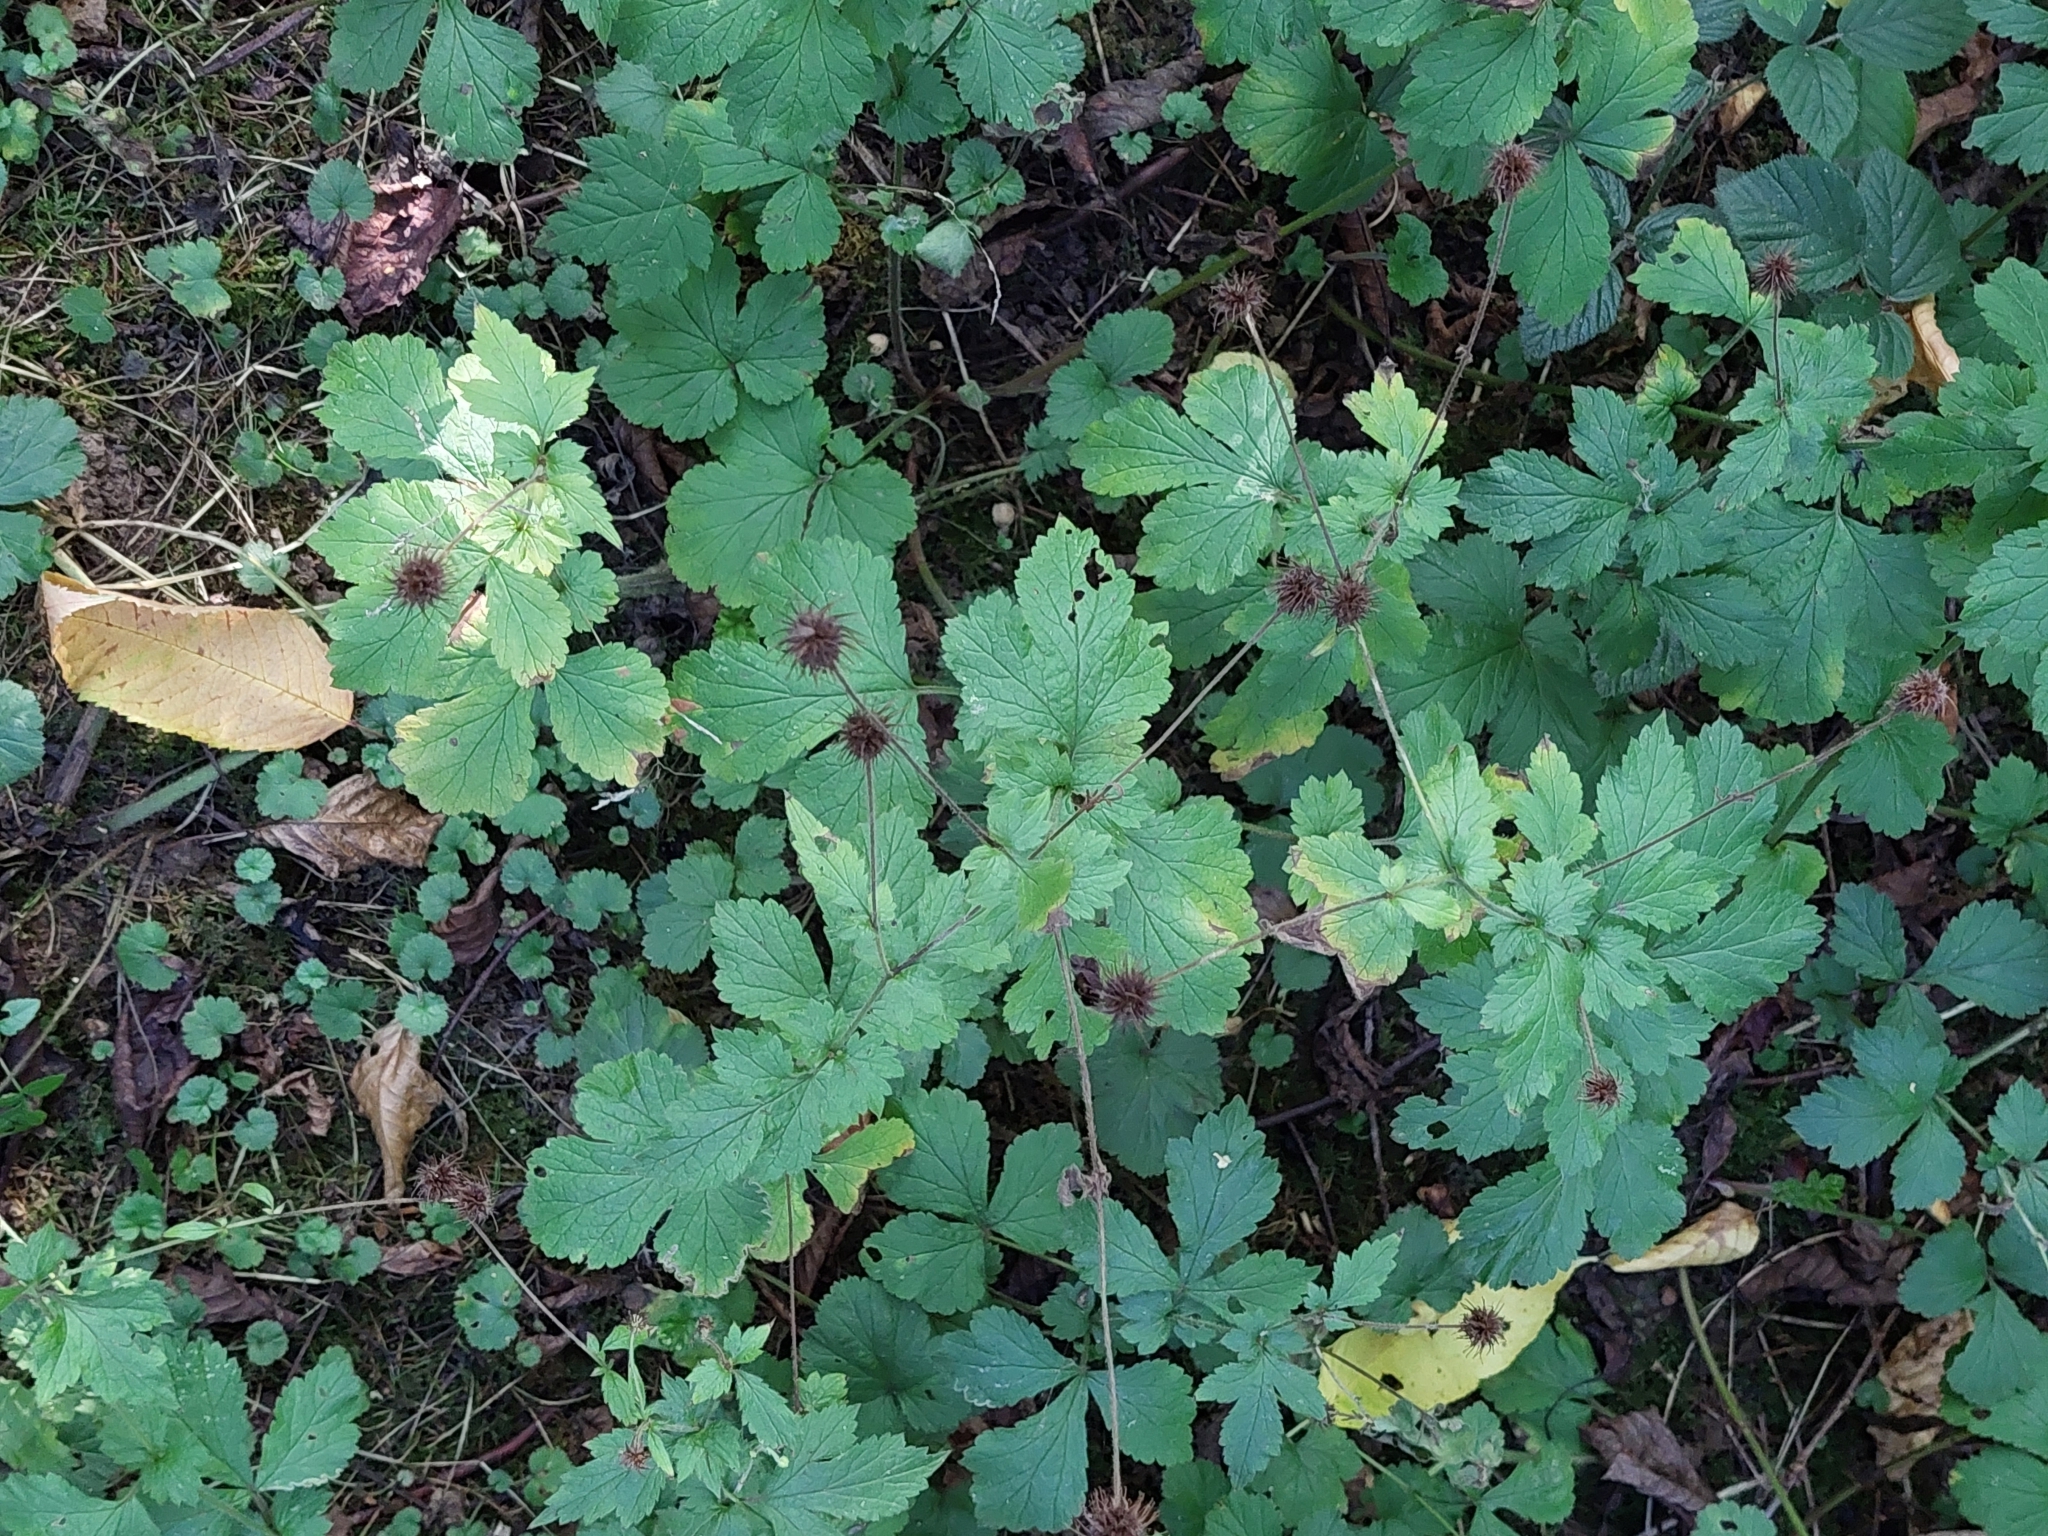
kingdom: Plantae
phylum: Tracheophyta
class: Magnoliopsida
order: Rosales
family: Rosaceae
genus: Geum
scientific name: Geum urbanum
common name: Wood avens
